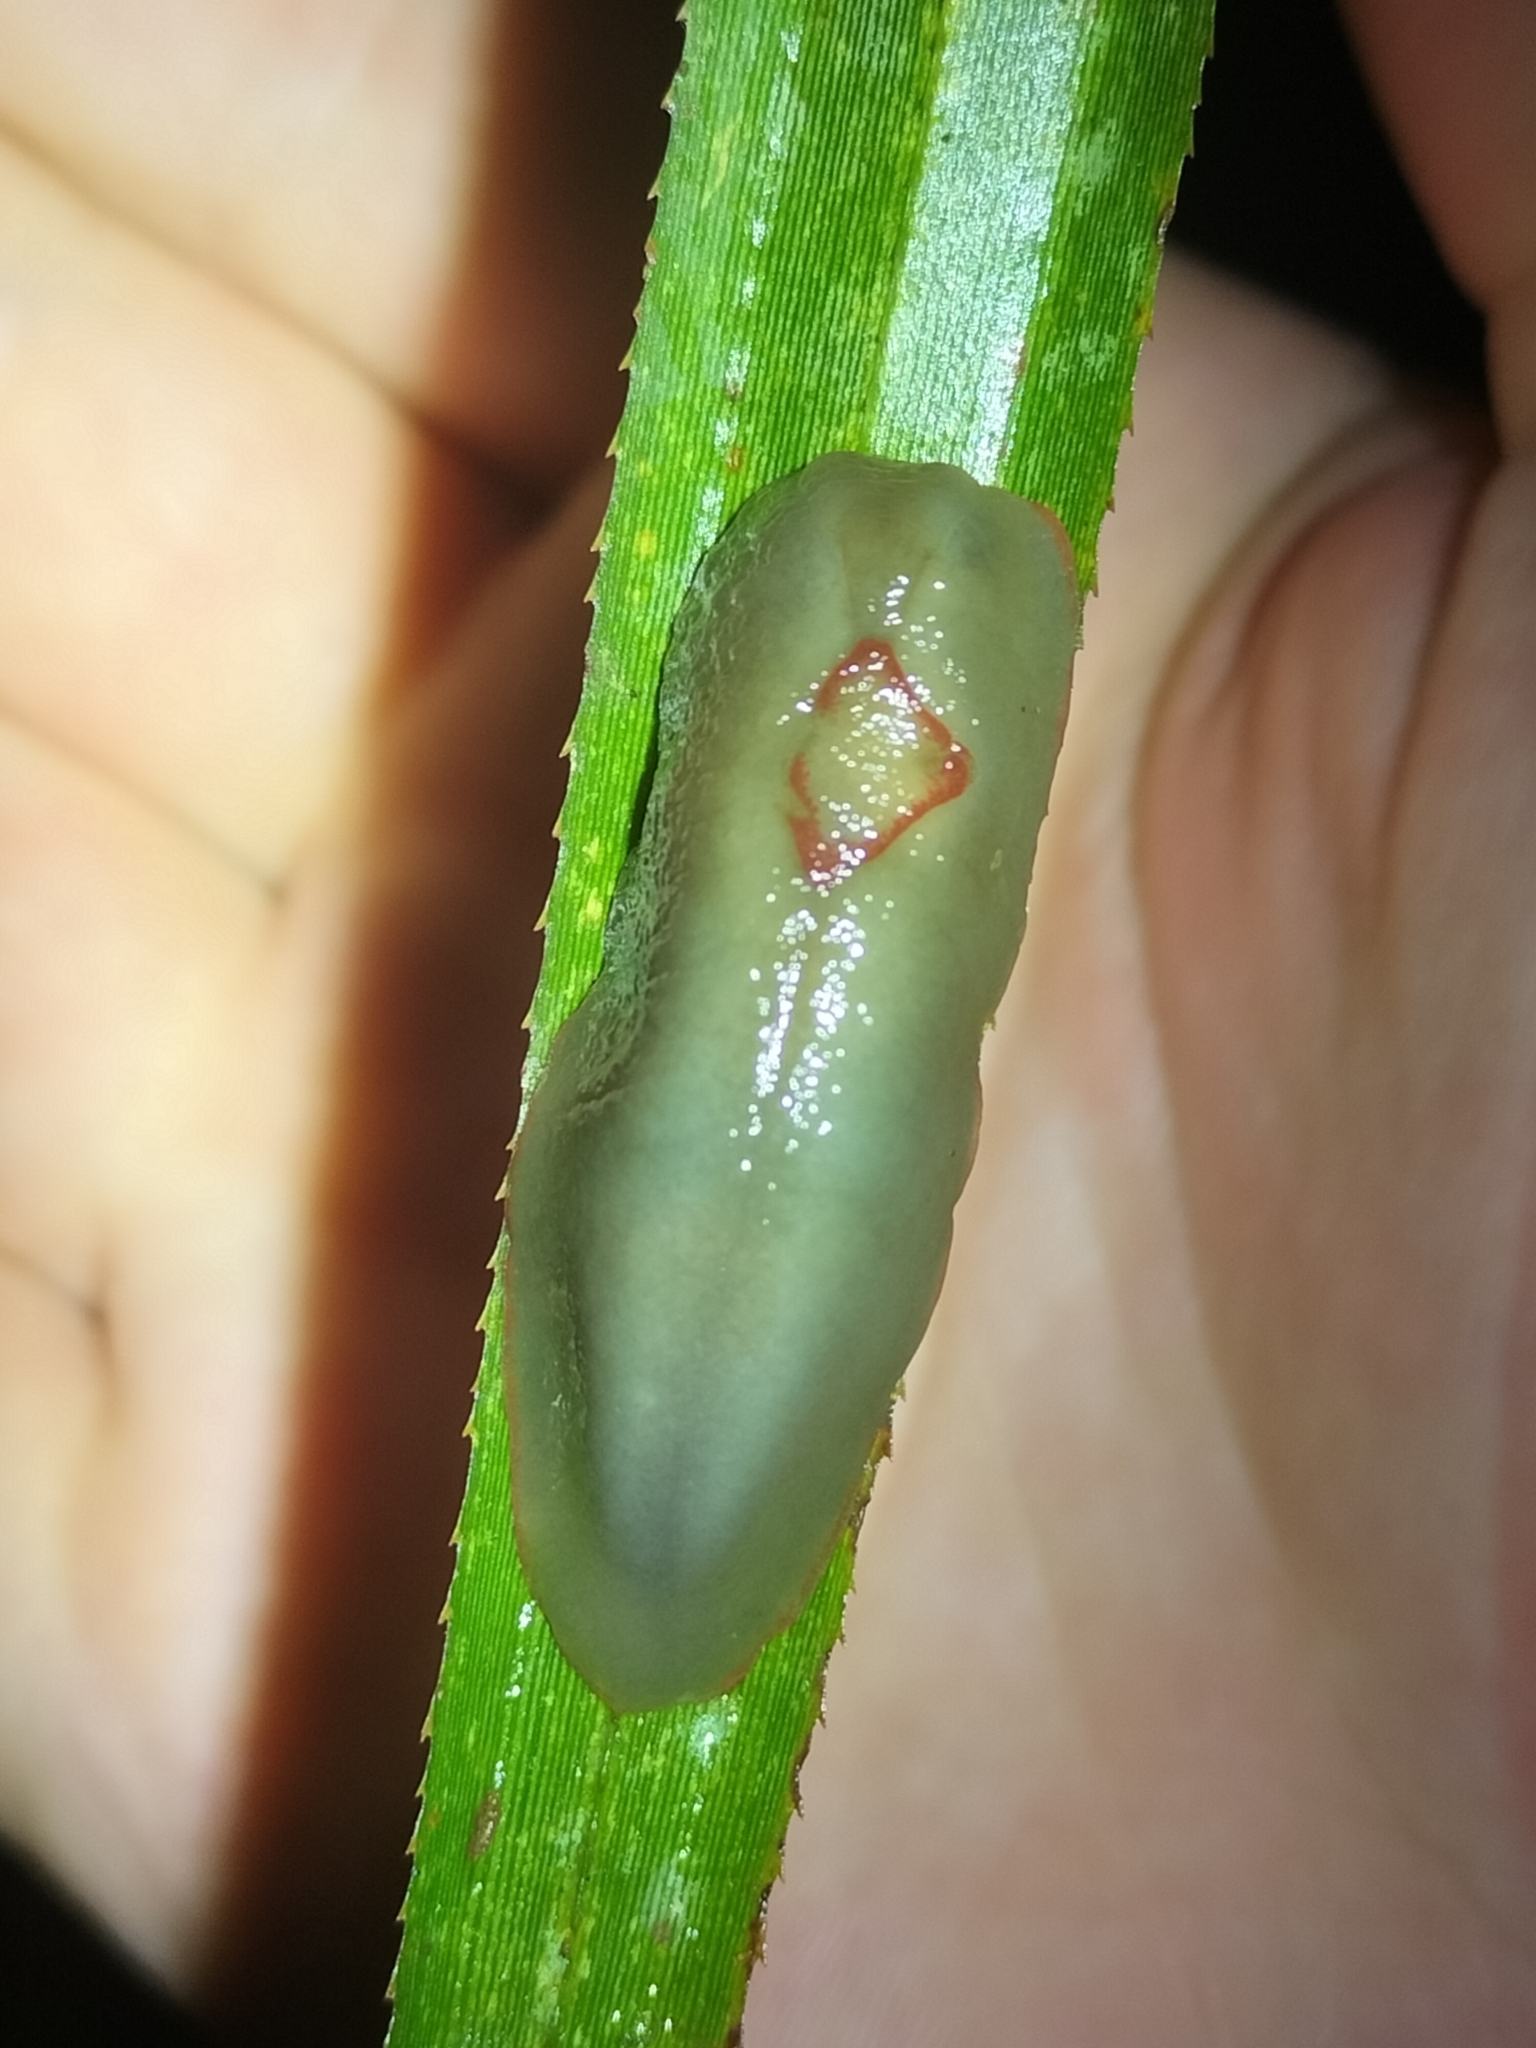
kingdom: Animalia
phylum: Mollusca
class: Gastropoda
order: Stylommatophora
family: Athoracophoridae
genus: Triboniophorus
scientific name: Triboniophorus graeffei
